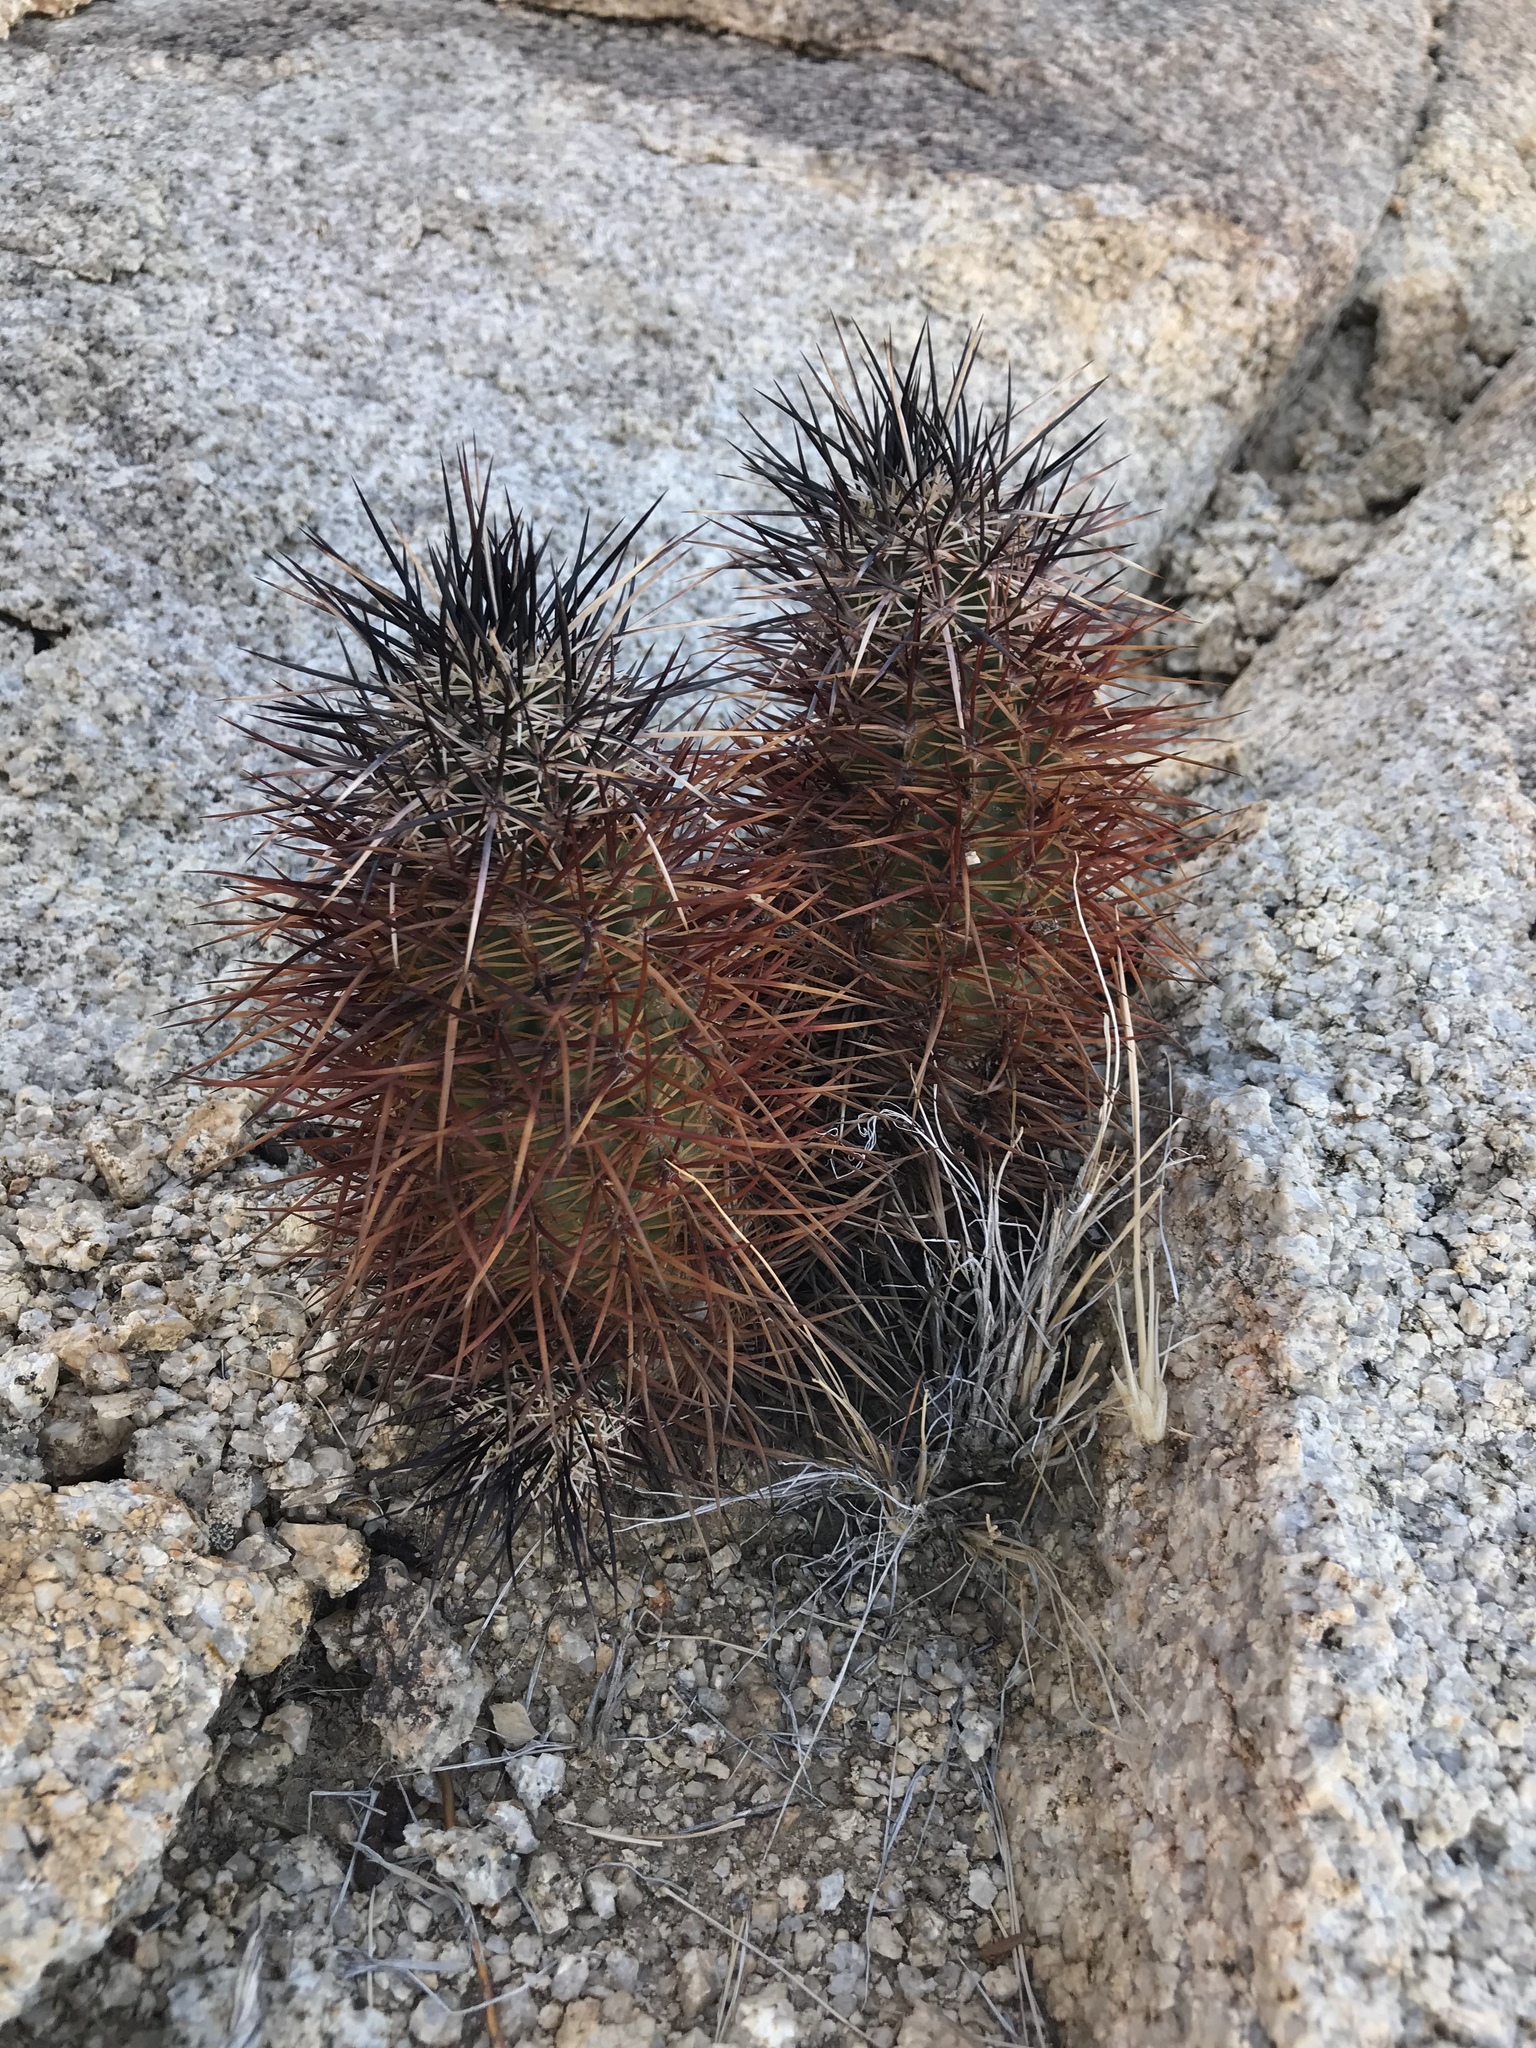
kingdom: Plantae
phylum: Tracheophyta
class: Magnoliopsida
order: Caryophyllales
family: Cactaceae
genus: Echinocereus
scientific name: Echinocereus engelmannii
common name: Engelmann's hedgehog cactus
